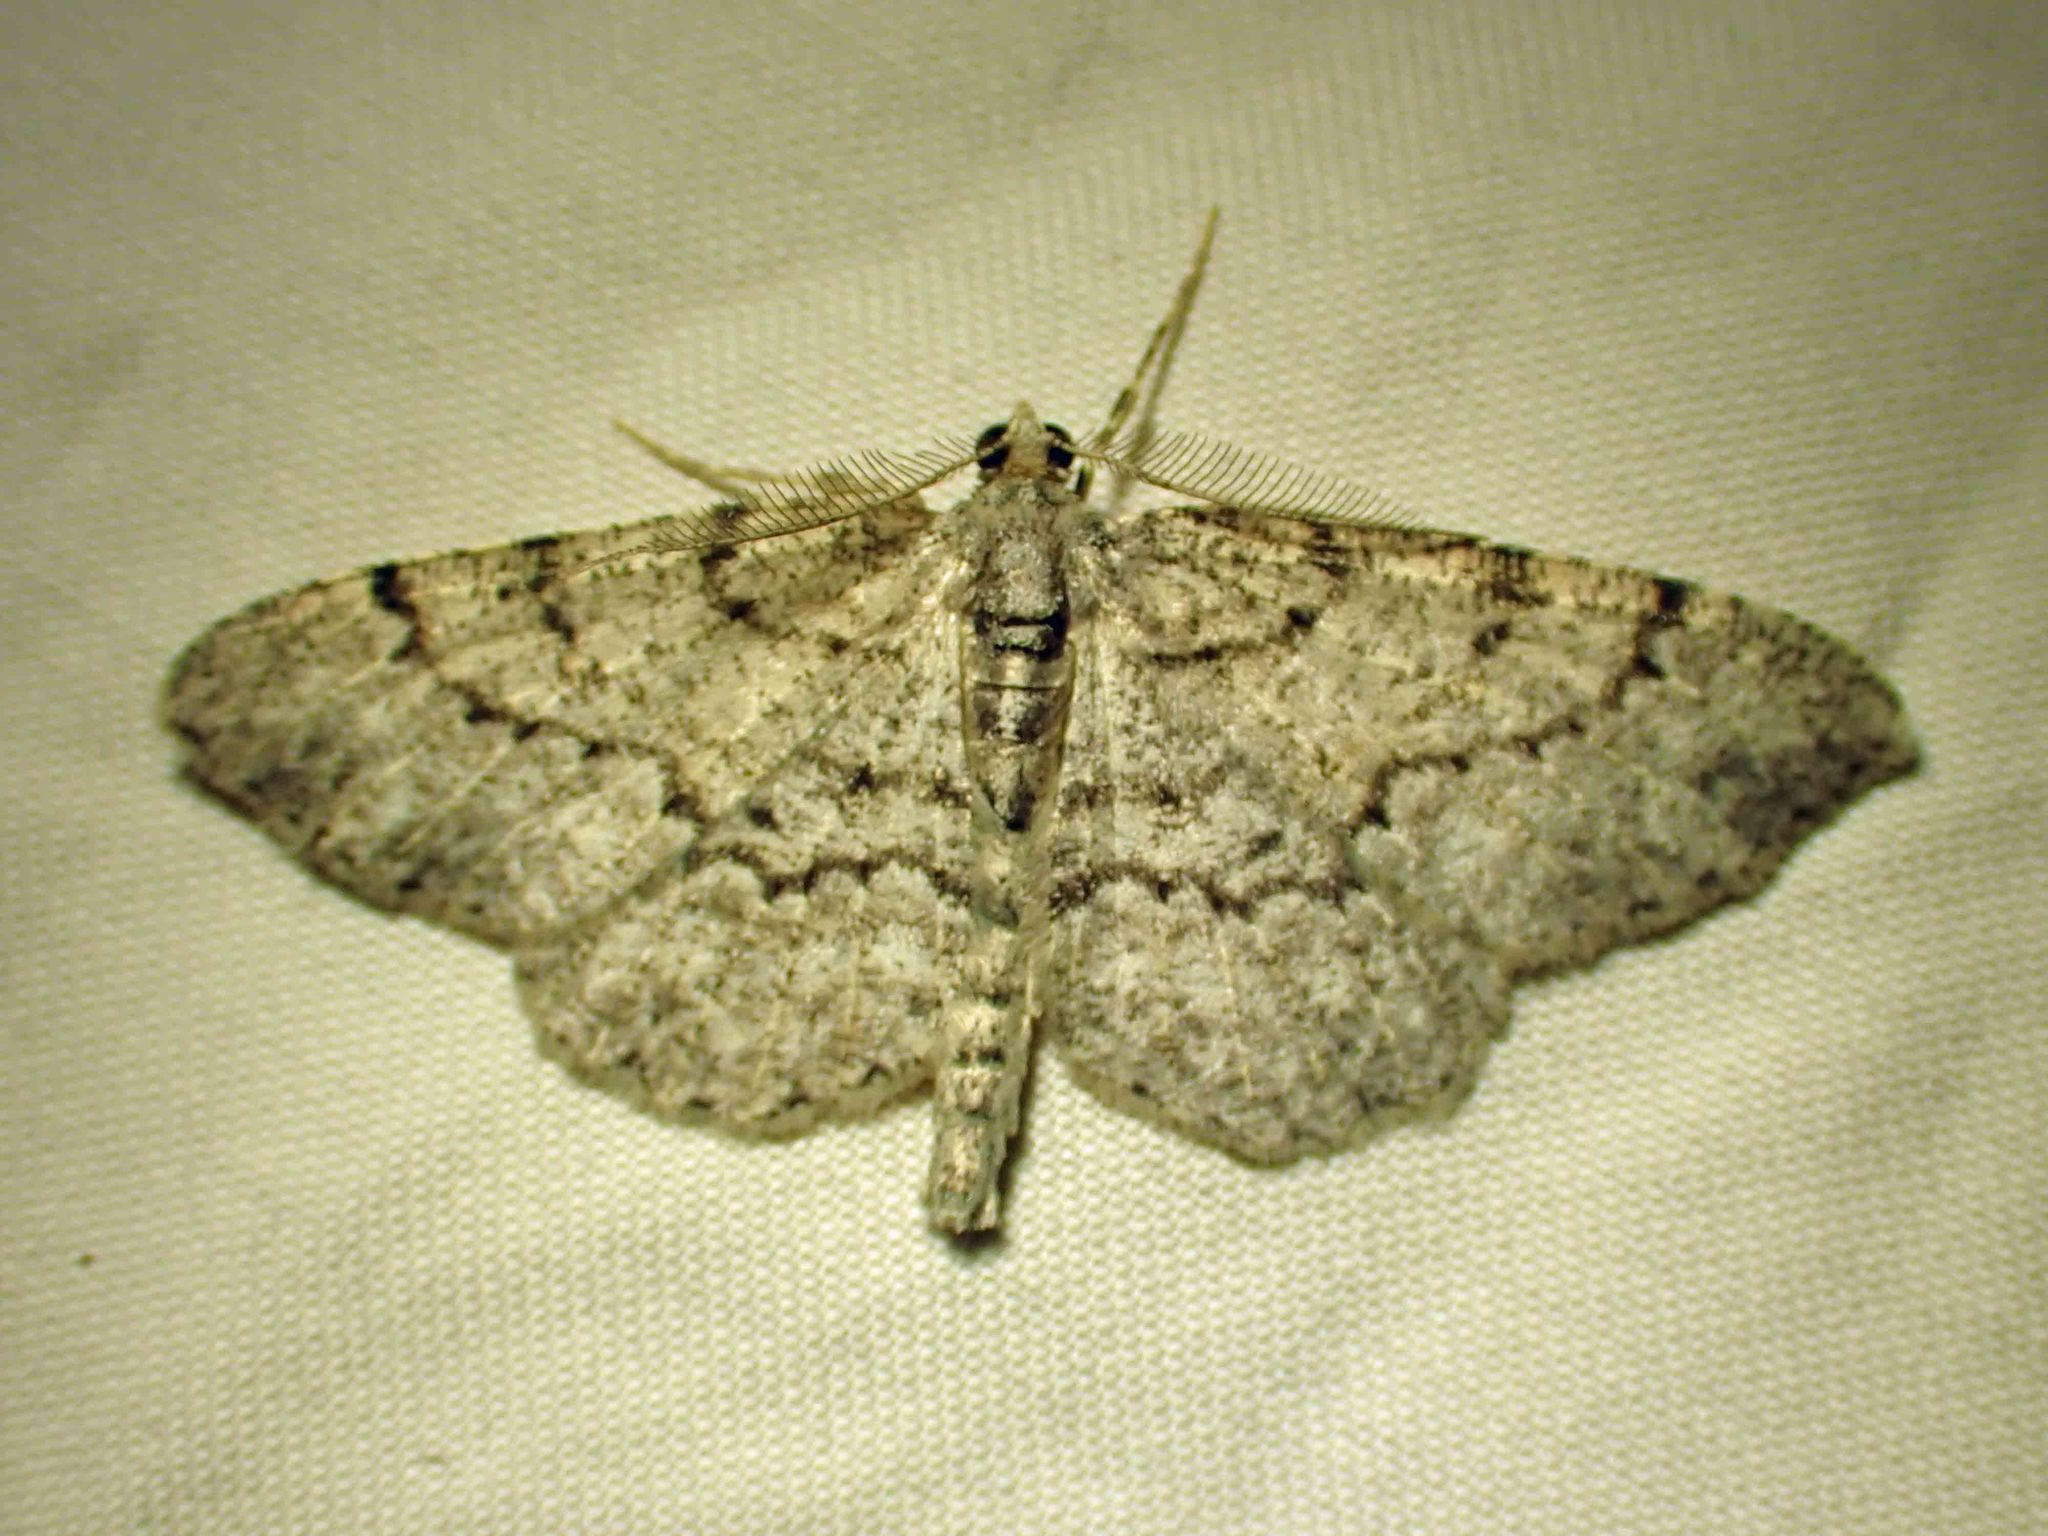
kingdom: Animalia
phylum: Arthropoda
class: Insecta
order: Lepidoptera
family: Geometridae
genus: Protoboarmia
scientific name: Protoboarmia porcelaria
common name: Porcelain gray
